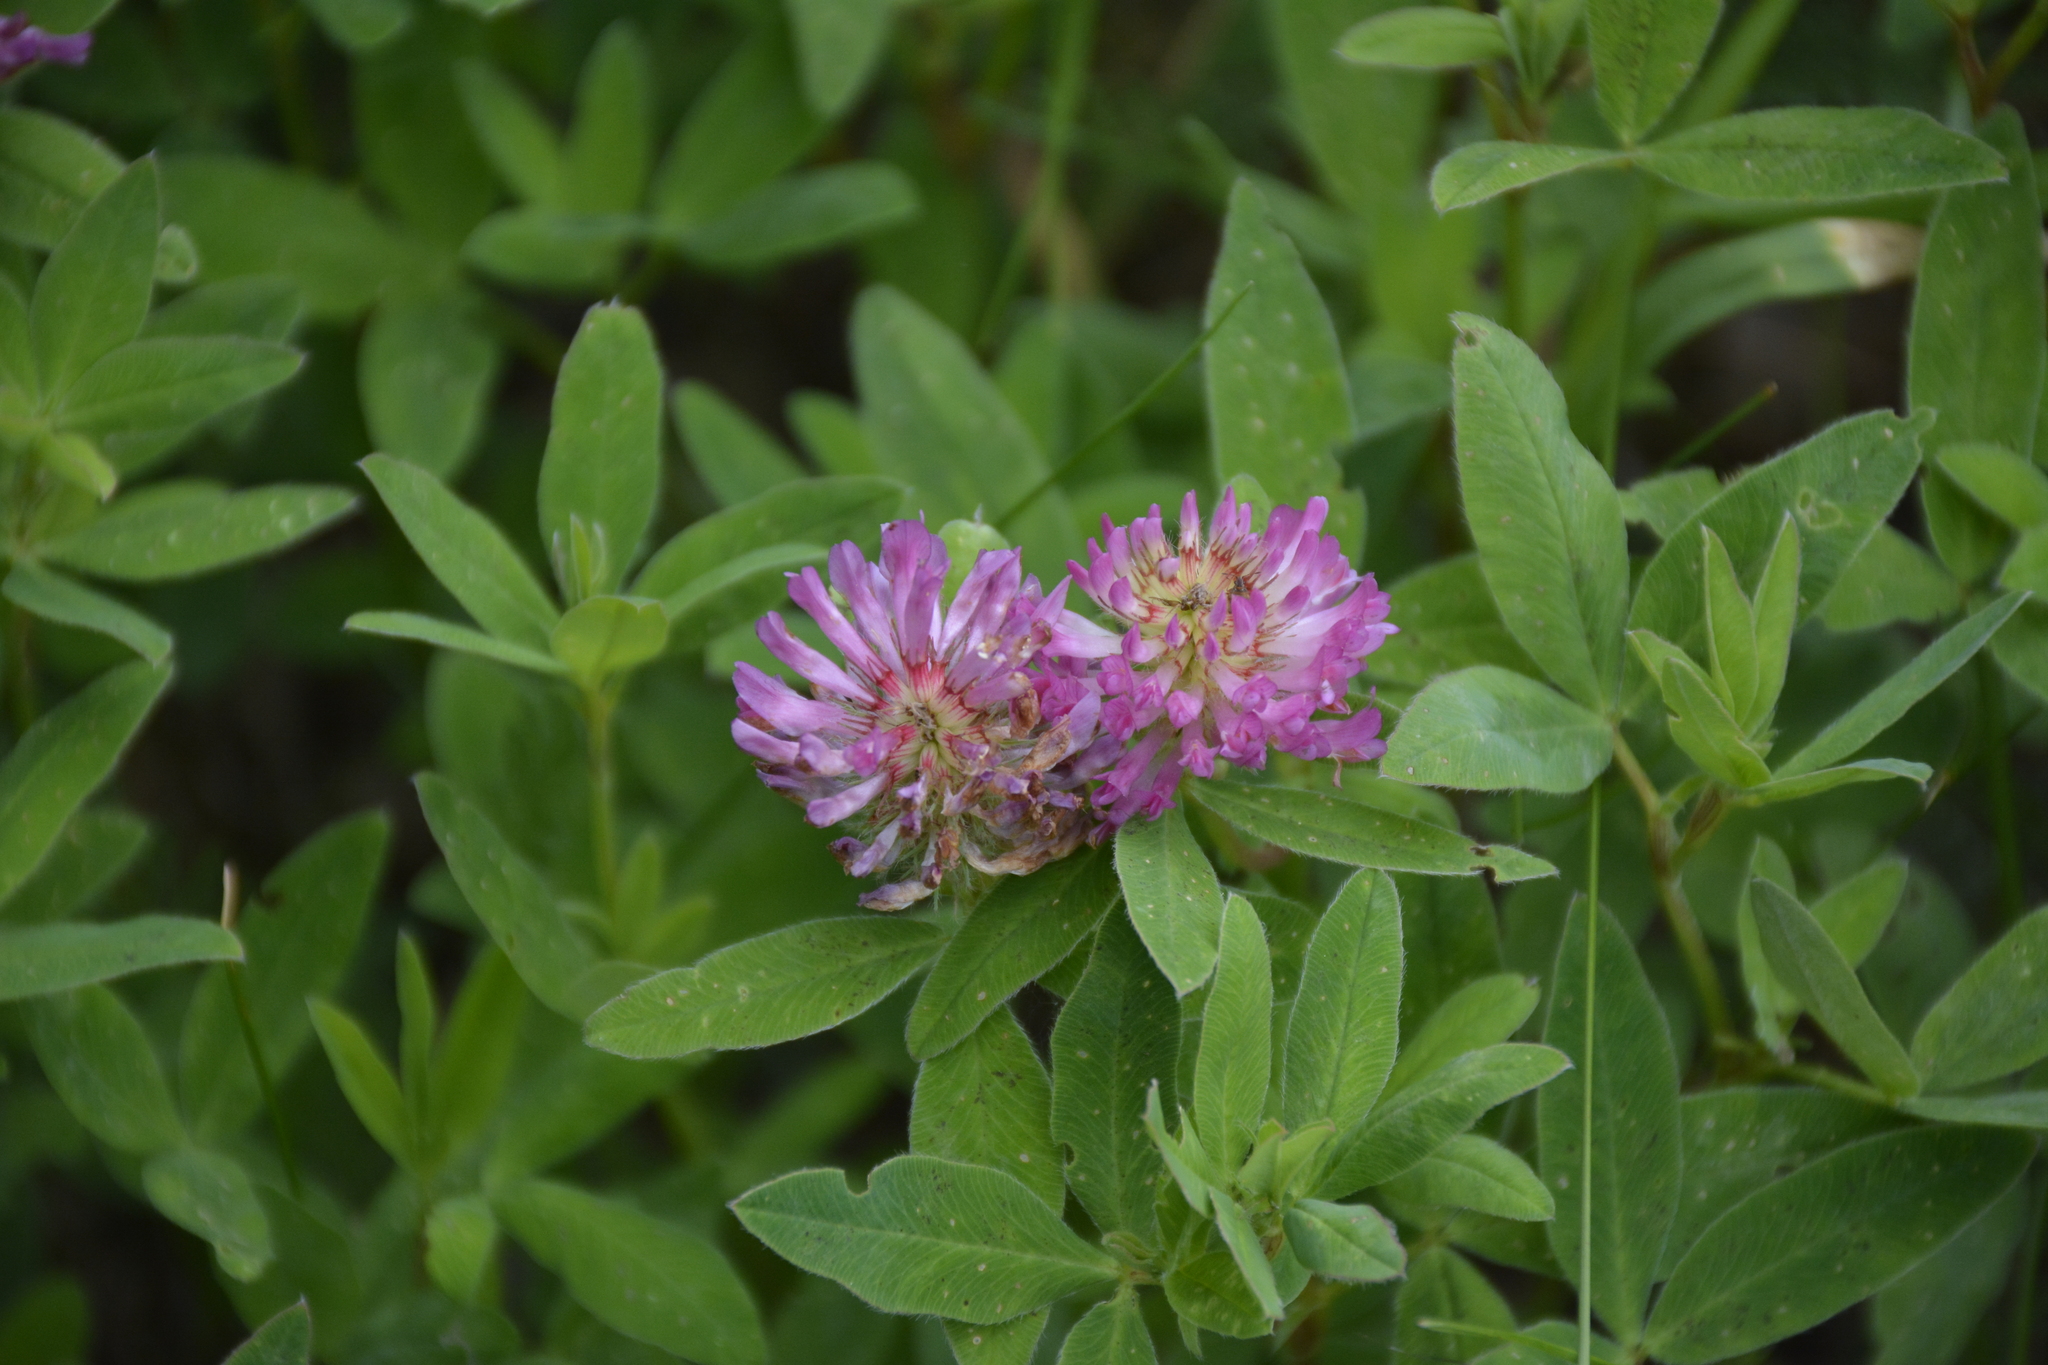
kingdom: Plantae
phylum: Tracheophyta
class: Magnoliopsida
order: Fabales
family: Fabaceae
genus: Trifolium
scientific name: Trifolium medium
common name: Zigzag clover
